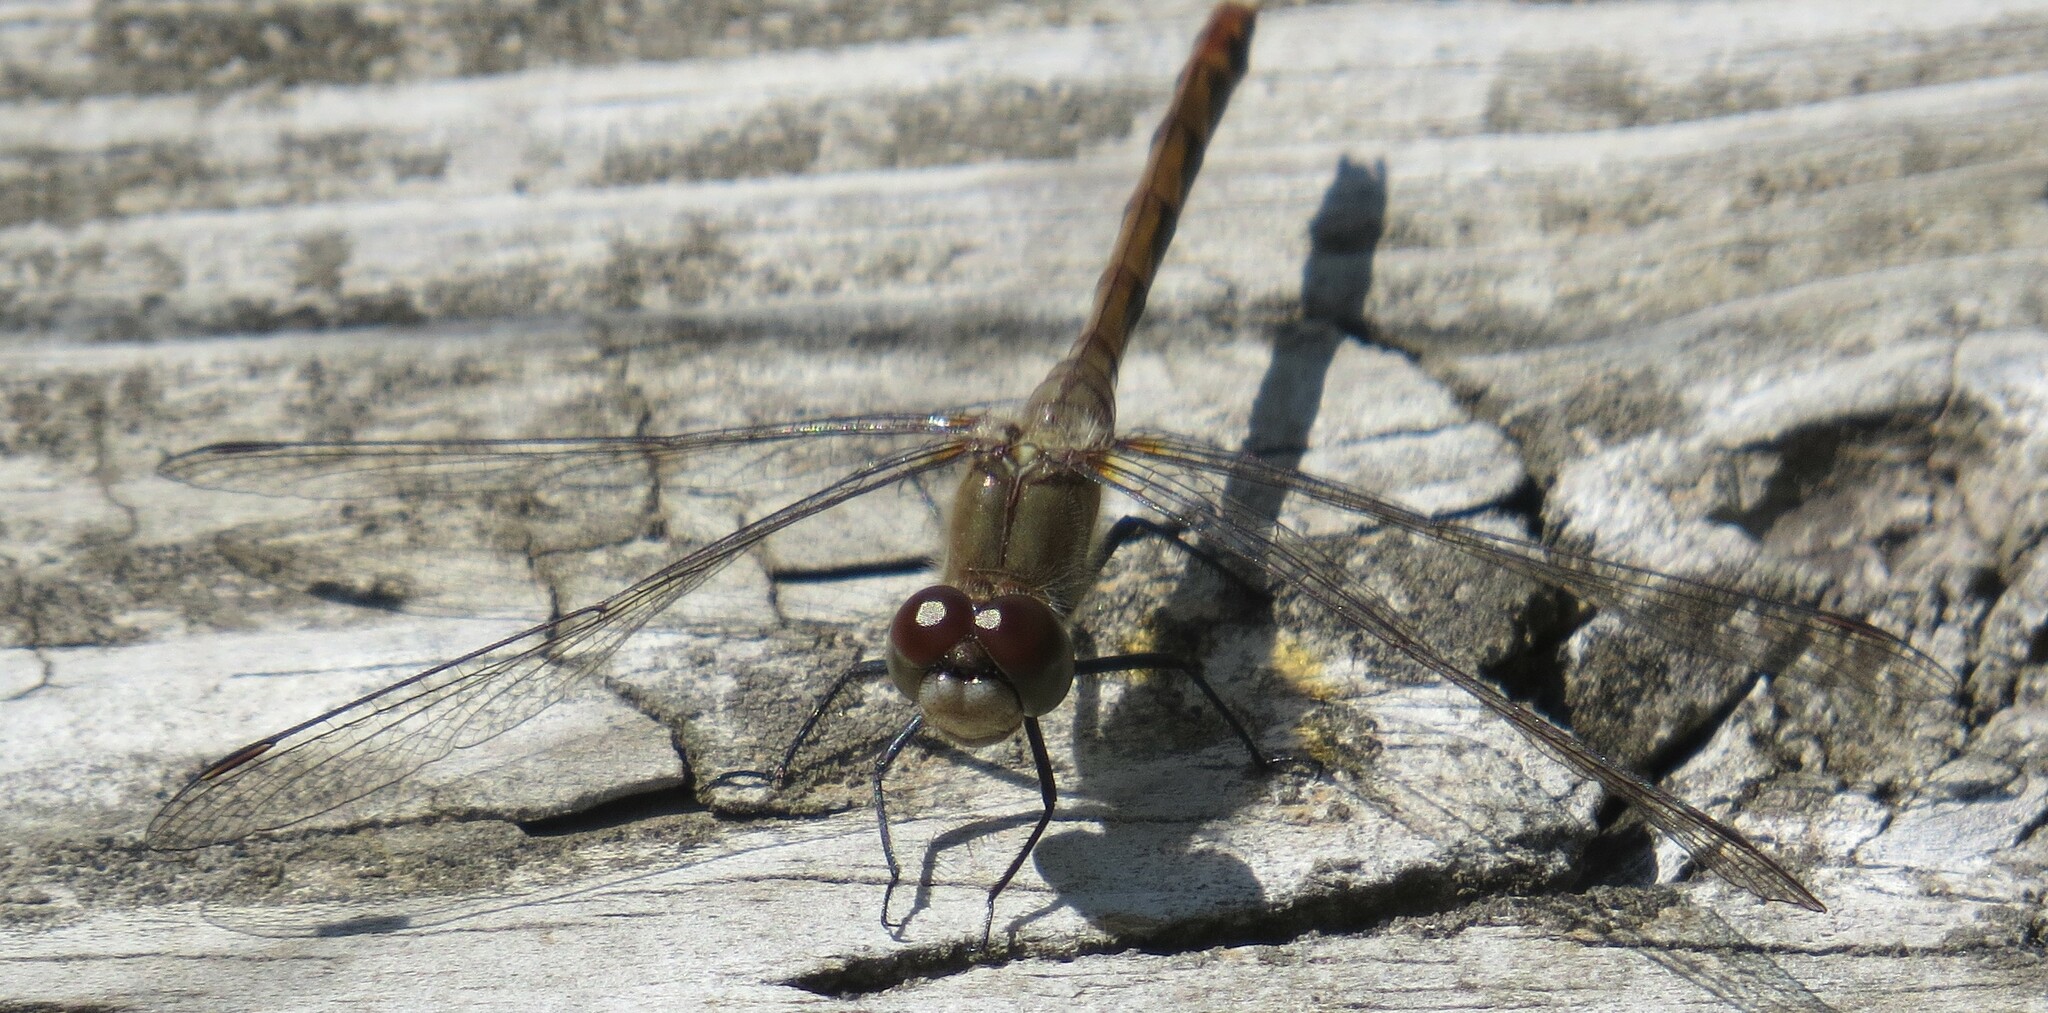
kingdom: Animalia
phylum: Arthropoda
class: Insecta
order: Odonata
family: Libellulidae
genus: Sympetrum
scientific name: Sympetrum obtrusum
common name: White-faced meadowhawk
